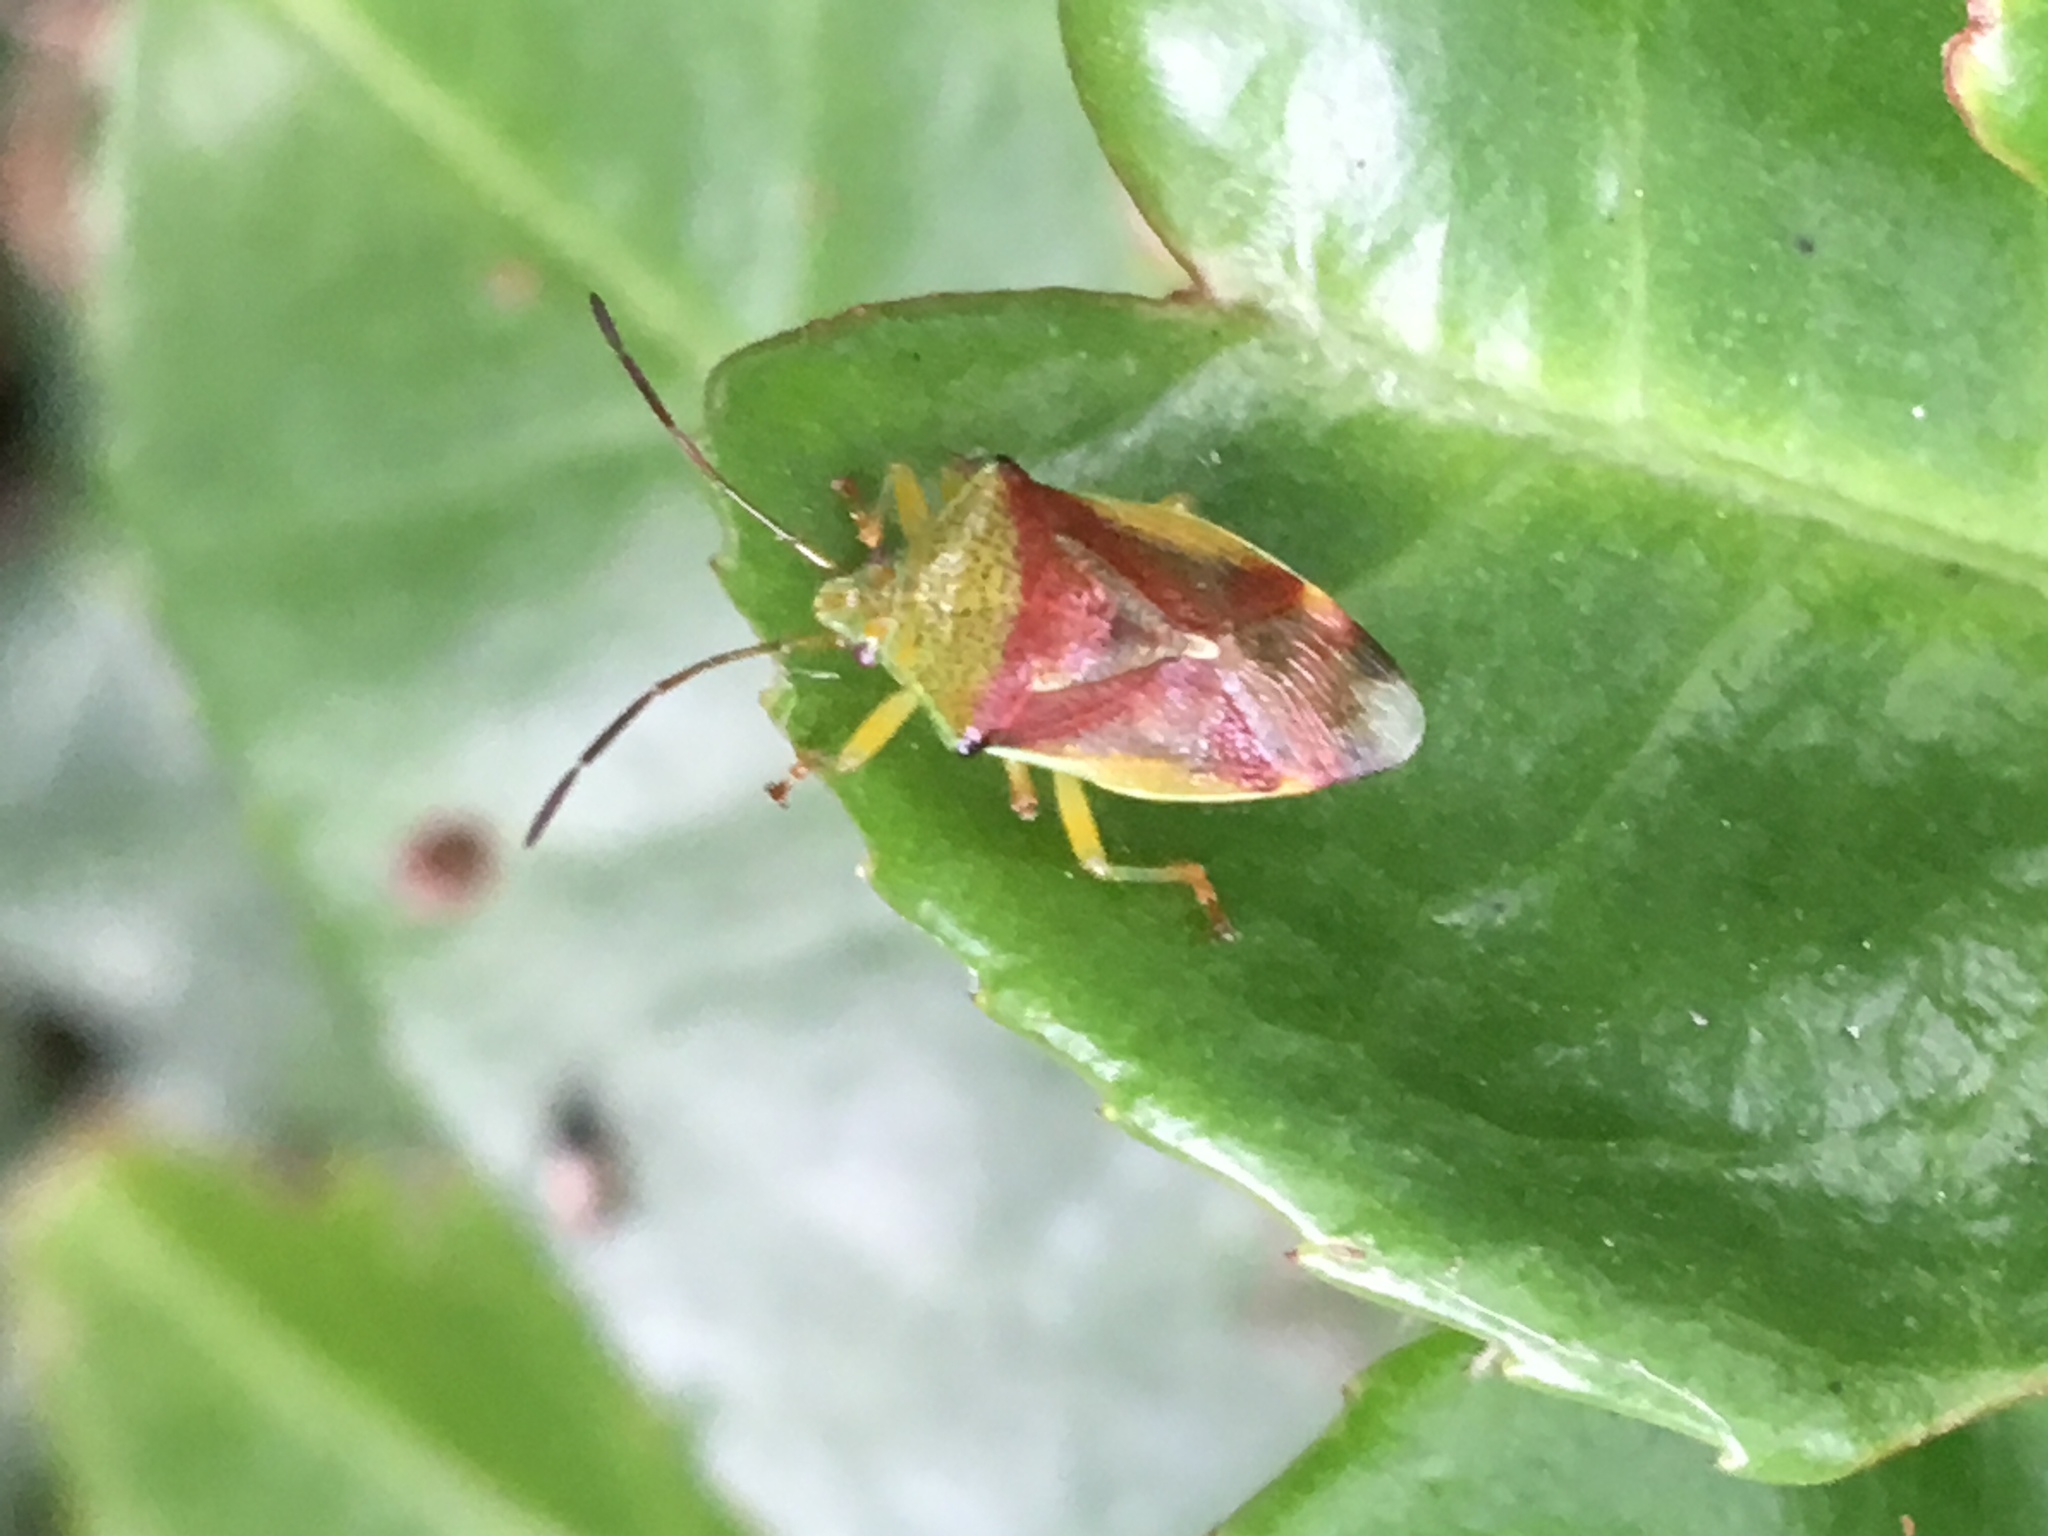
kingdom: Animalia
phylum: Arthropoda
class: Insecta
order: Hemiptera
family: Acanthosomatidae
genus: Elasmostethus
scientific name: Elasmostethus interstinctus
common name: Birch shieldbug
